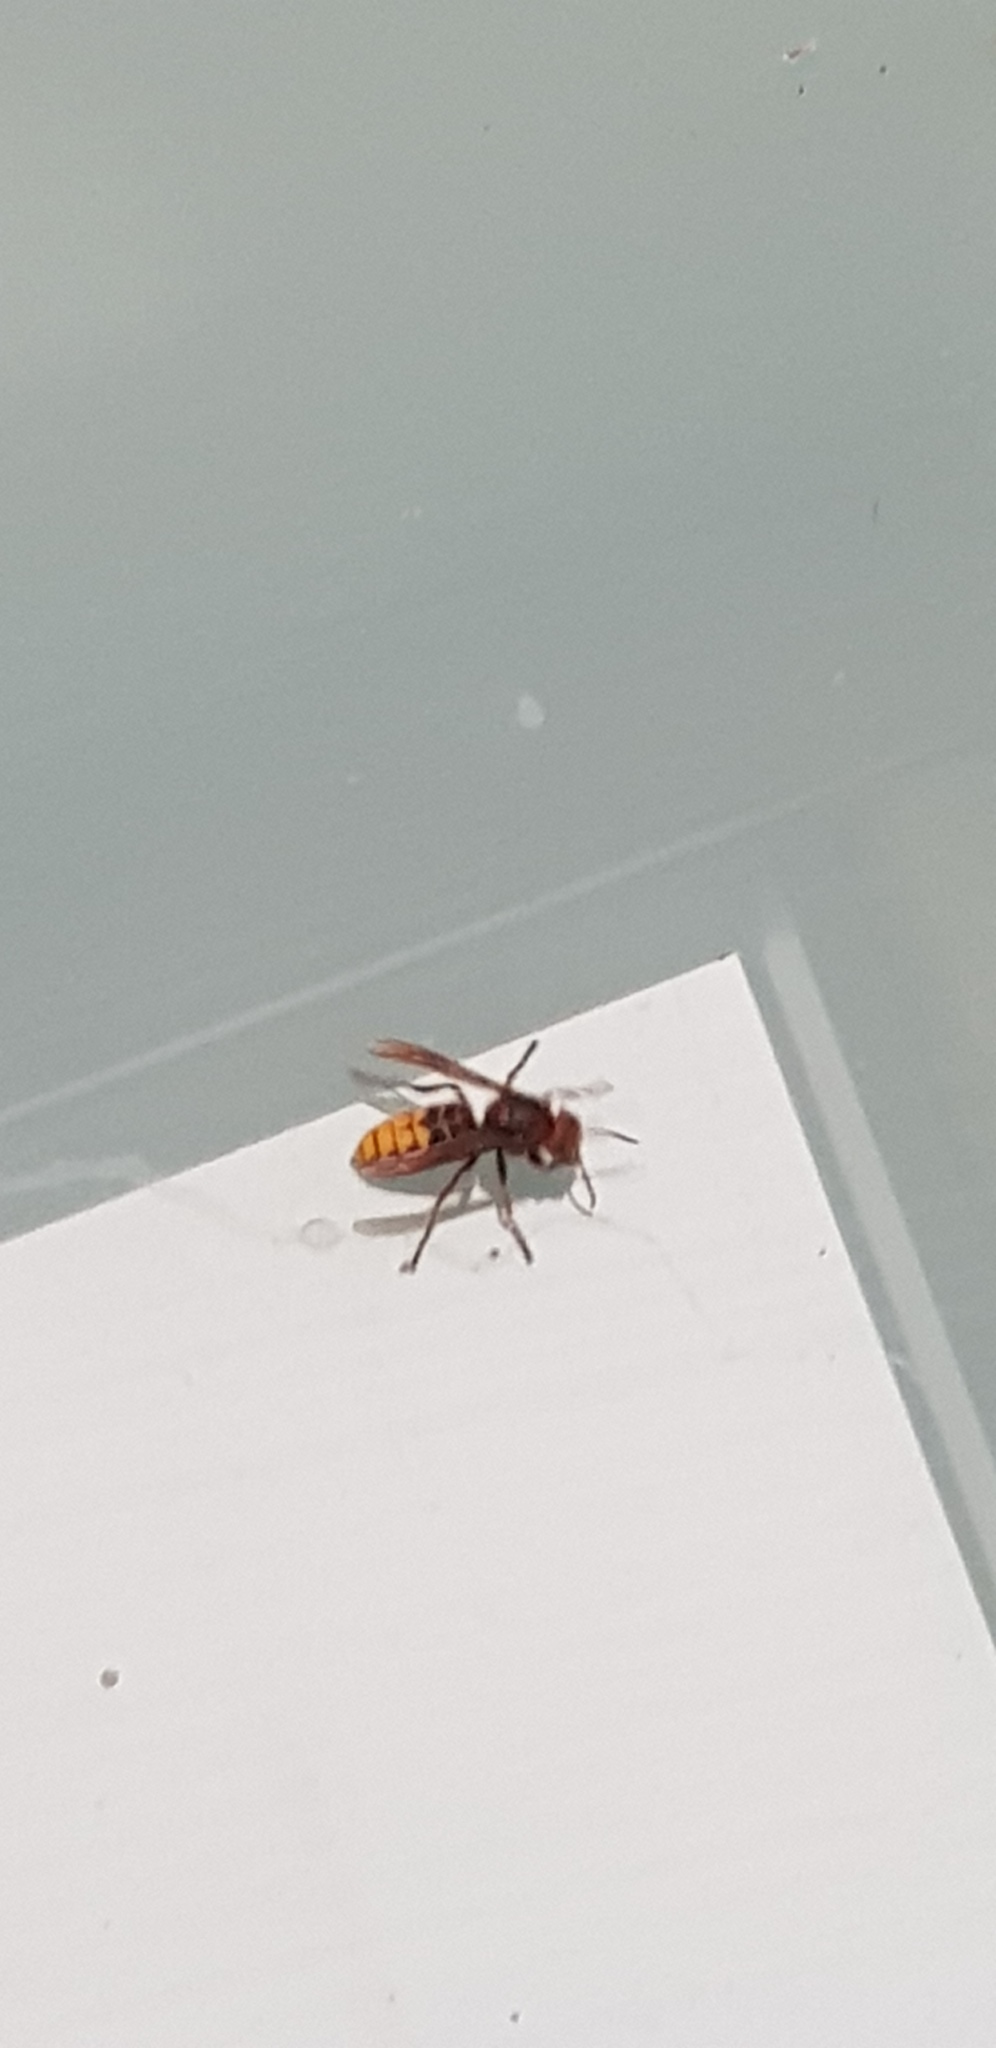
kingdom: Animalia
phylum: Arthropoda
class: Insecta
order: Hymenoptera
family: Vespidae
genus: Vespa
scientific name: Vespa crabro
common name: Hornet
